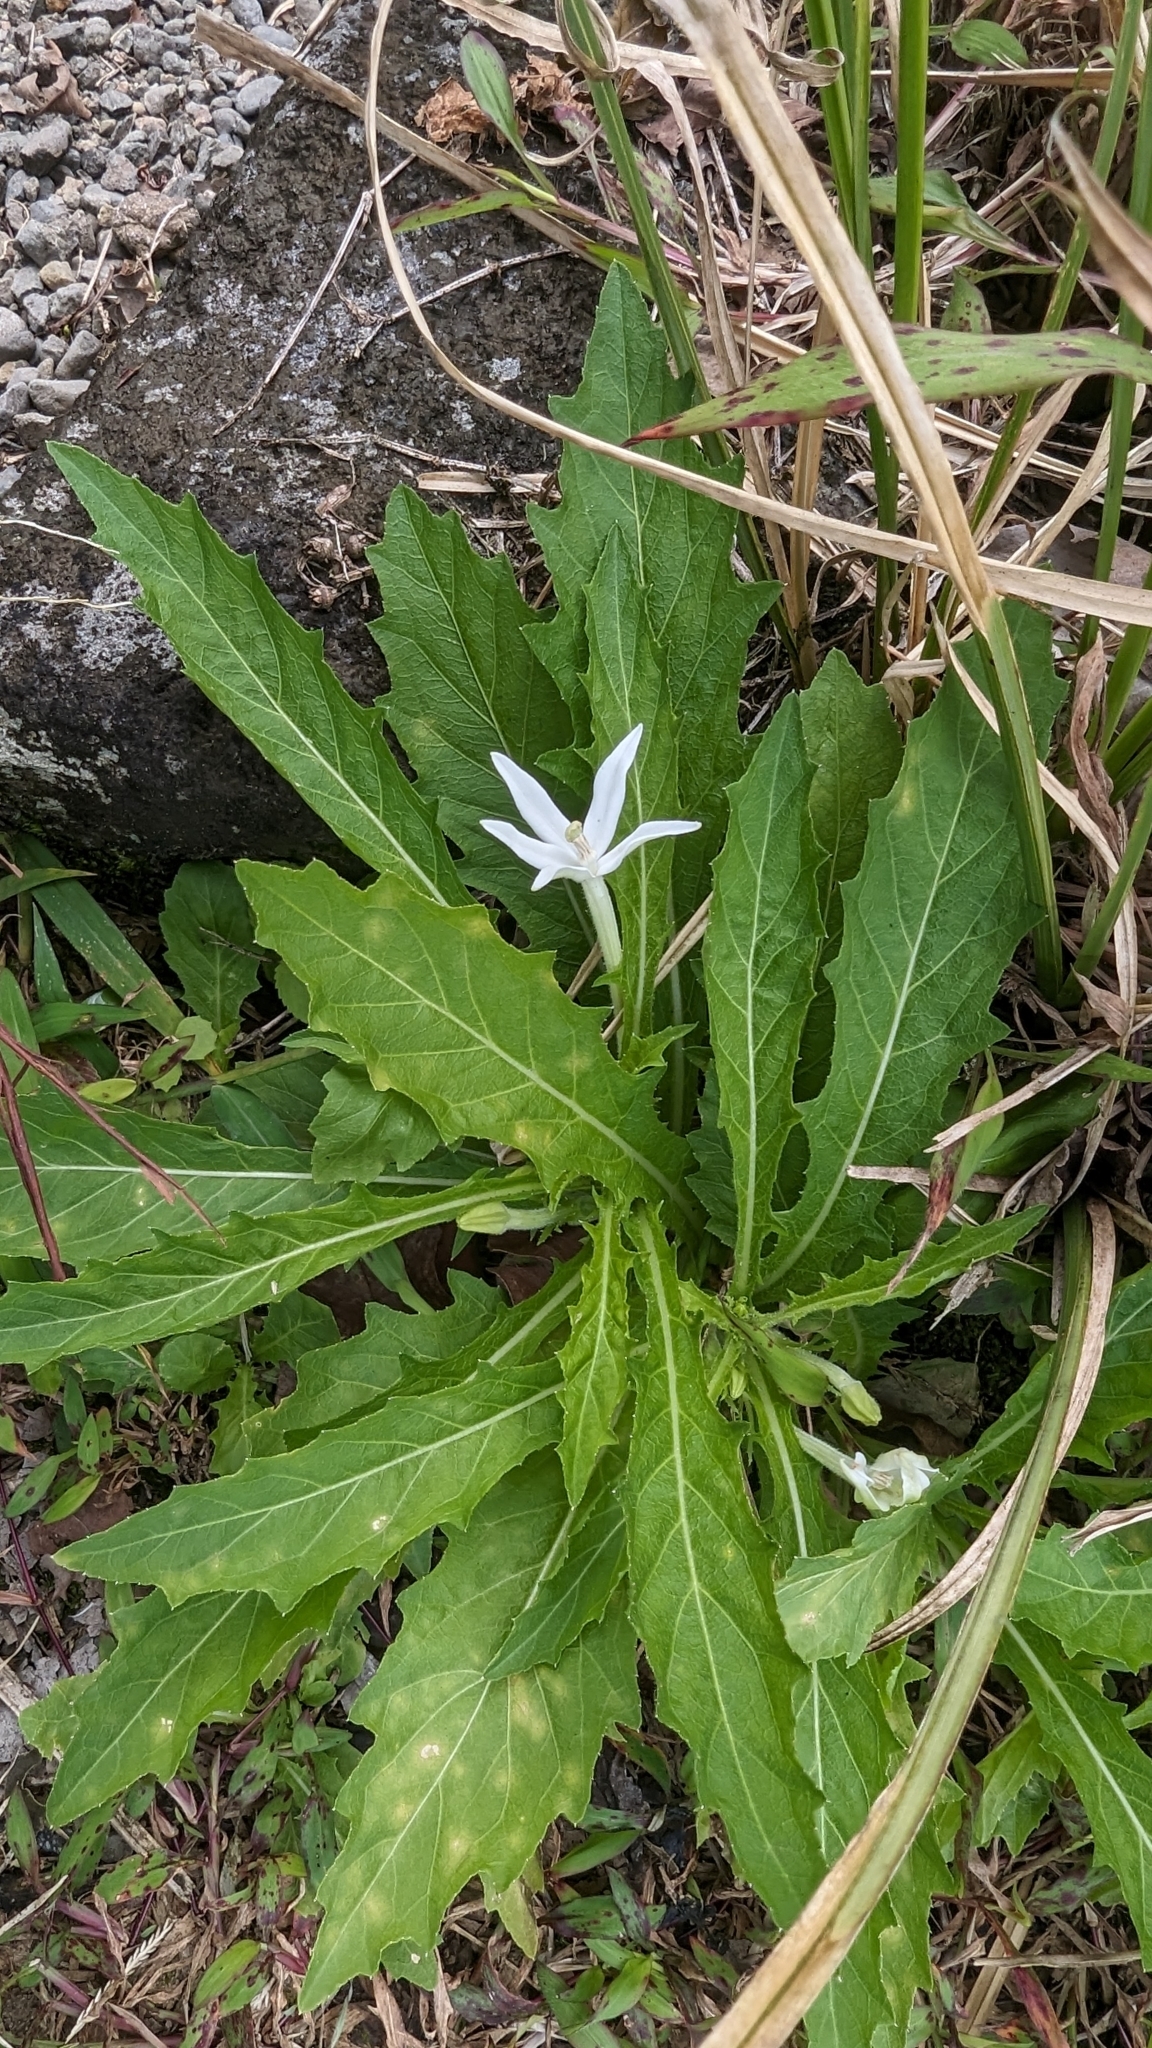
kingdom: Plantae
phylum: Tracheophyta
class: Magnoliopsida
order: Asterales
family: Campanulaceae
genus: Hippobroma
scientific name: Hippobroma longiflora
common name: Madamfate
